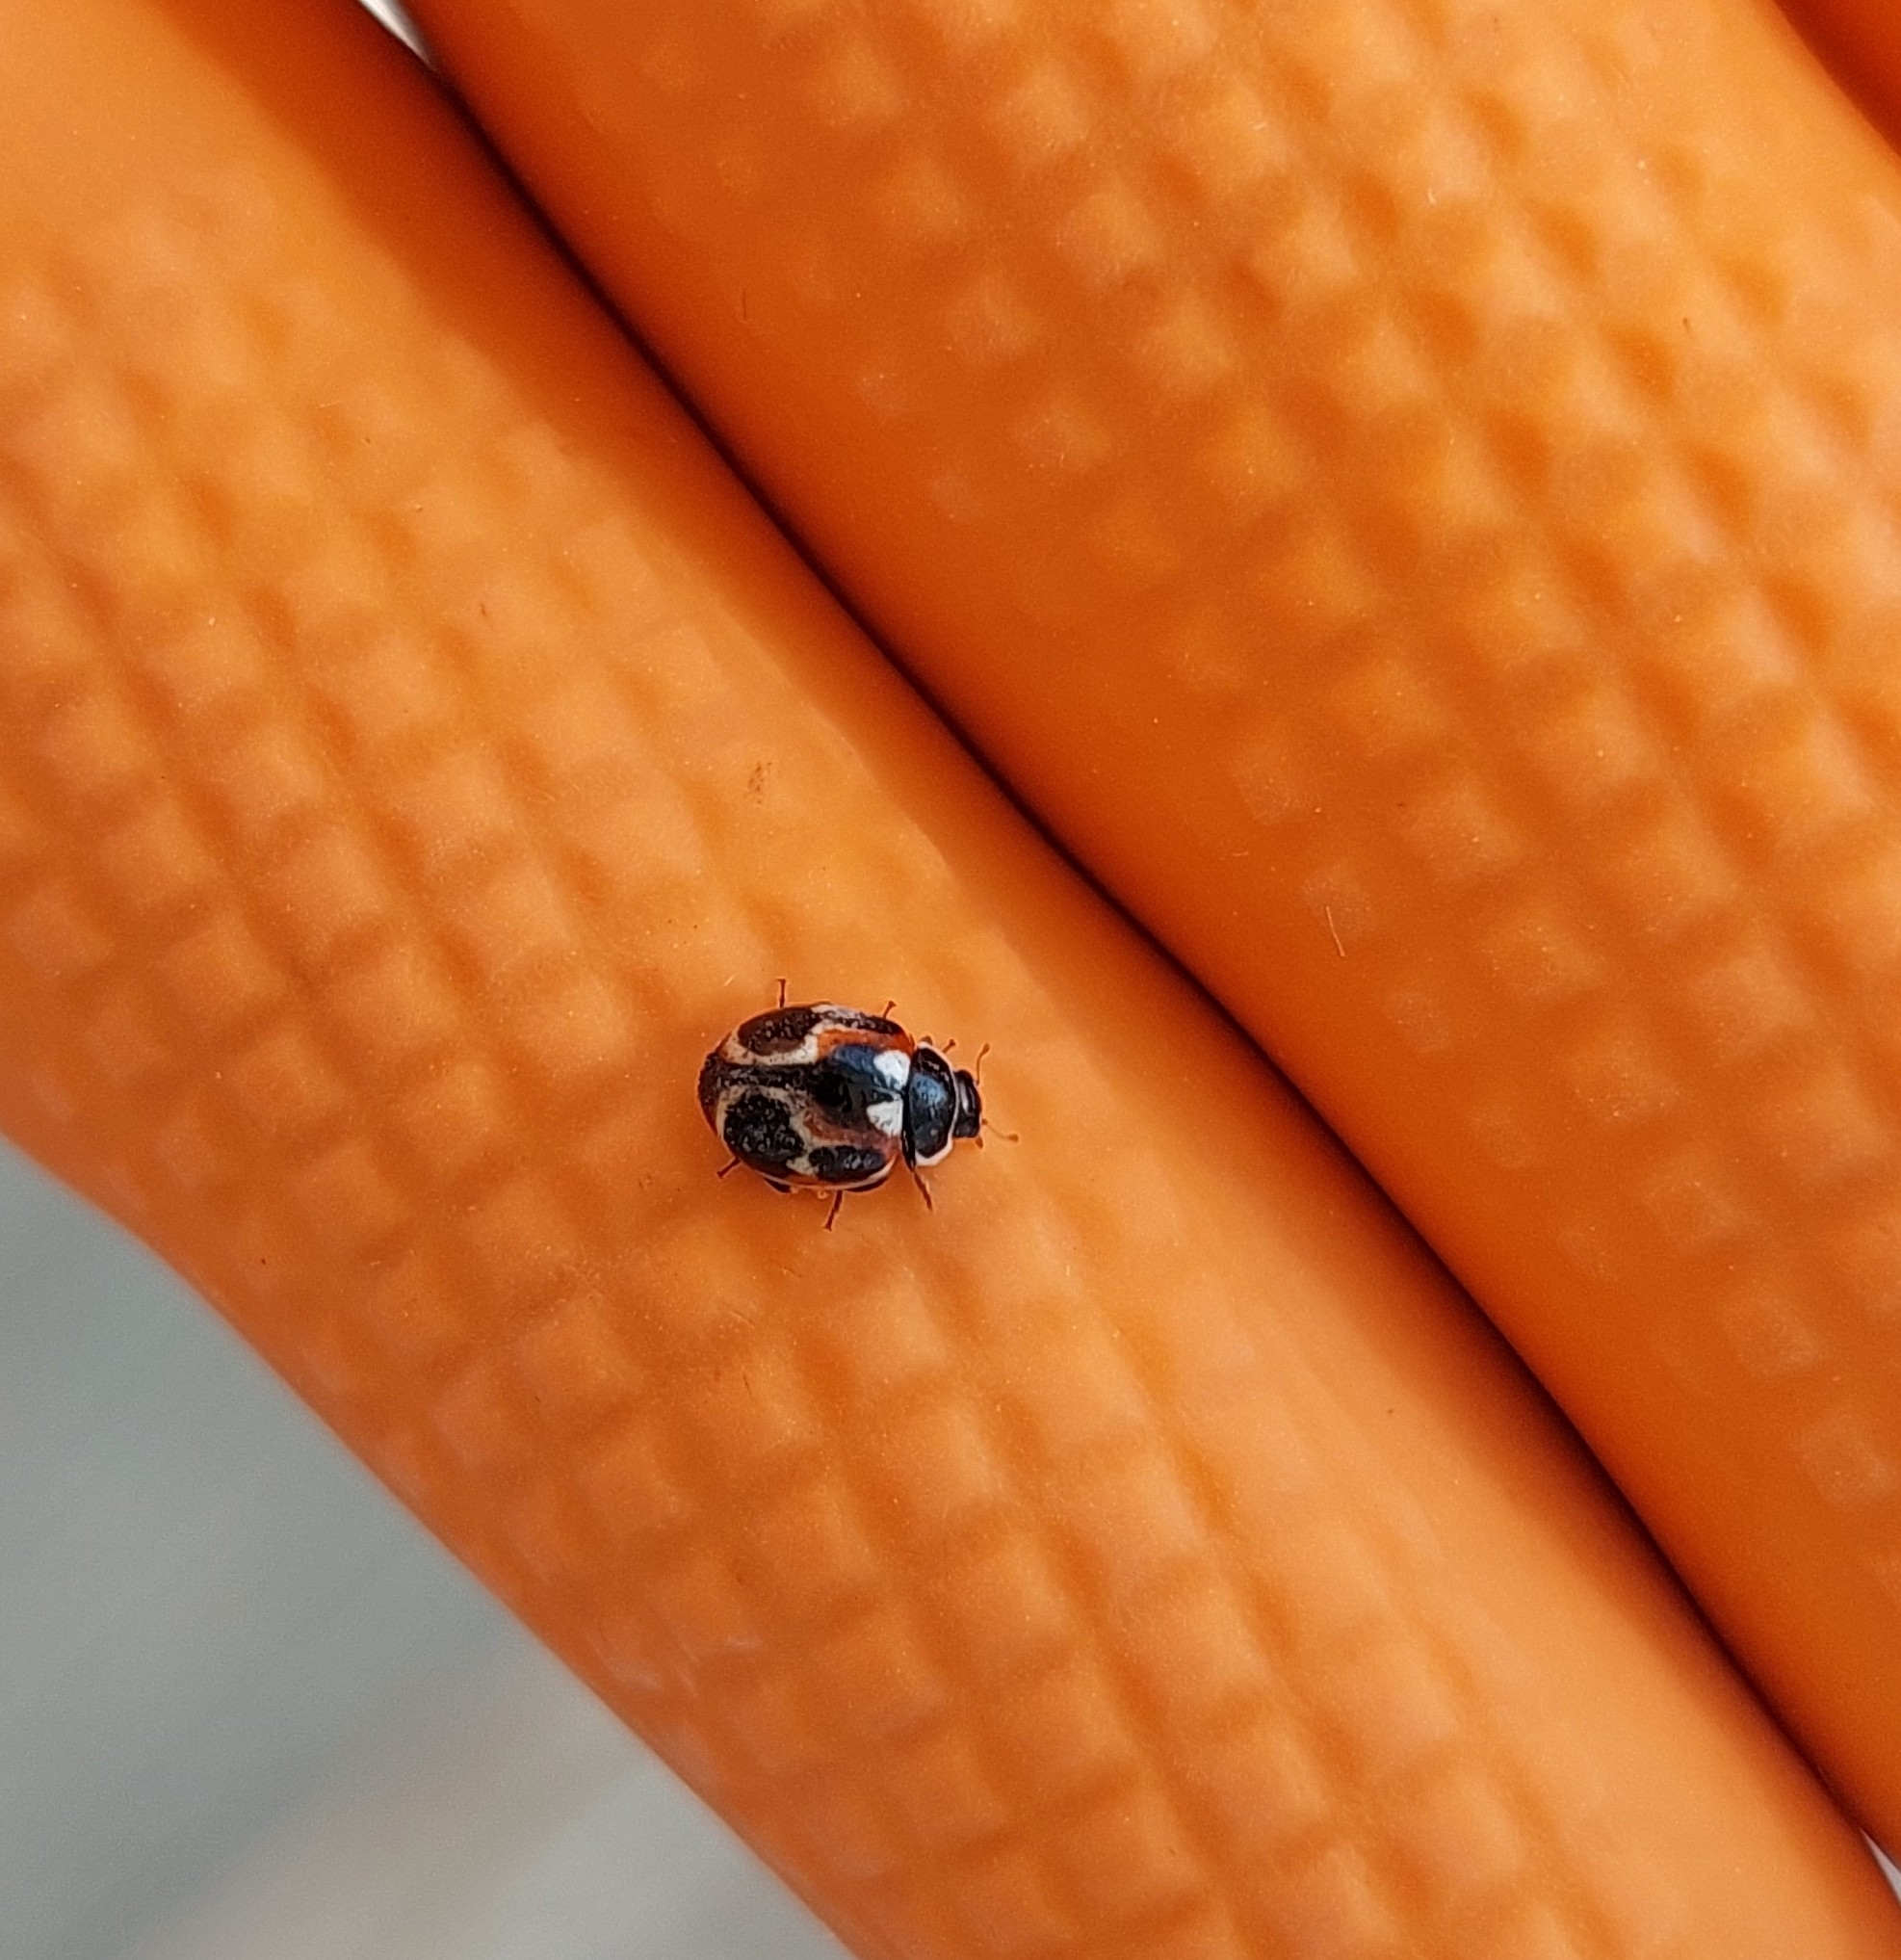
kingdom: Animalia
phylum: Arthropoda
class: Insecta
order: Coleoptera
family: Coccinellidae
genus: Cycloneda
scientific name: Cycloneda ancoralis
